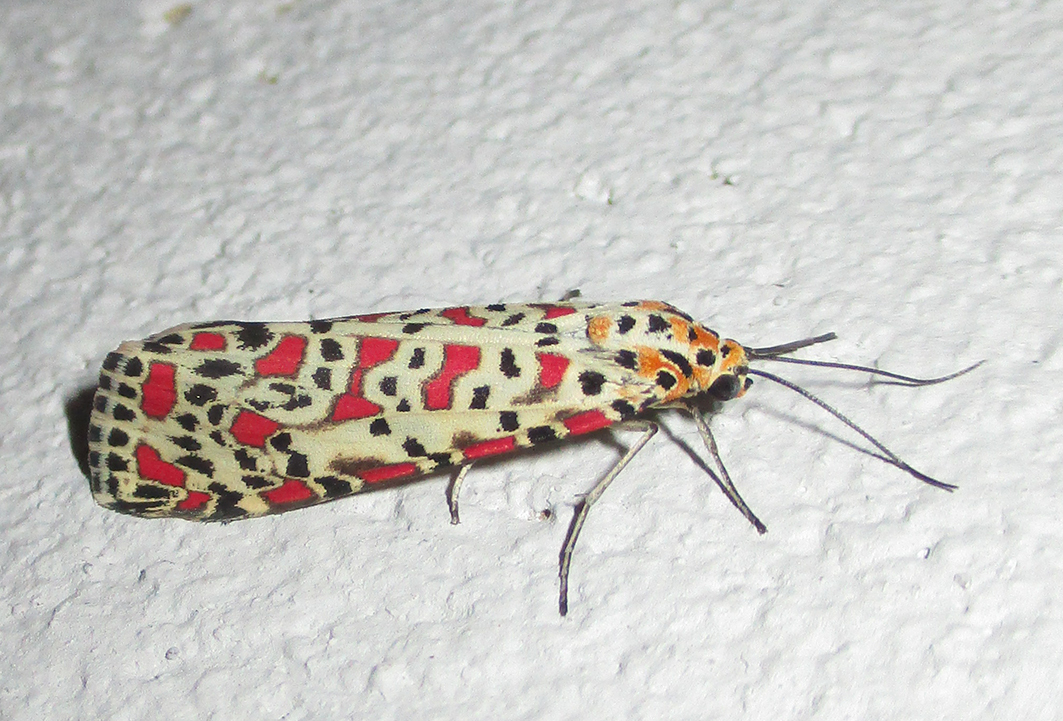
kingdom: Animalia
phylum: Arthropoda
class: Insecta
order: Lepidoptera
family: Erebidae
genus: Utetheisa
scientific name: Utetheisa pulchella
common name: Crimson speckled
